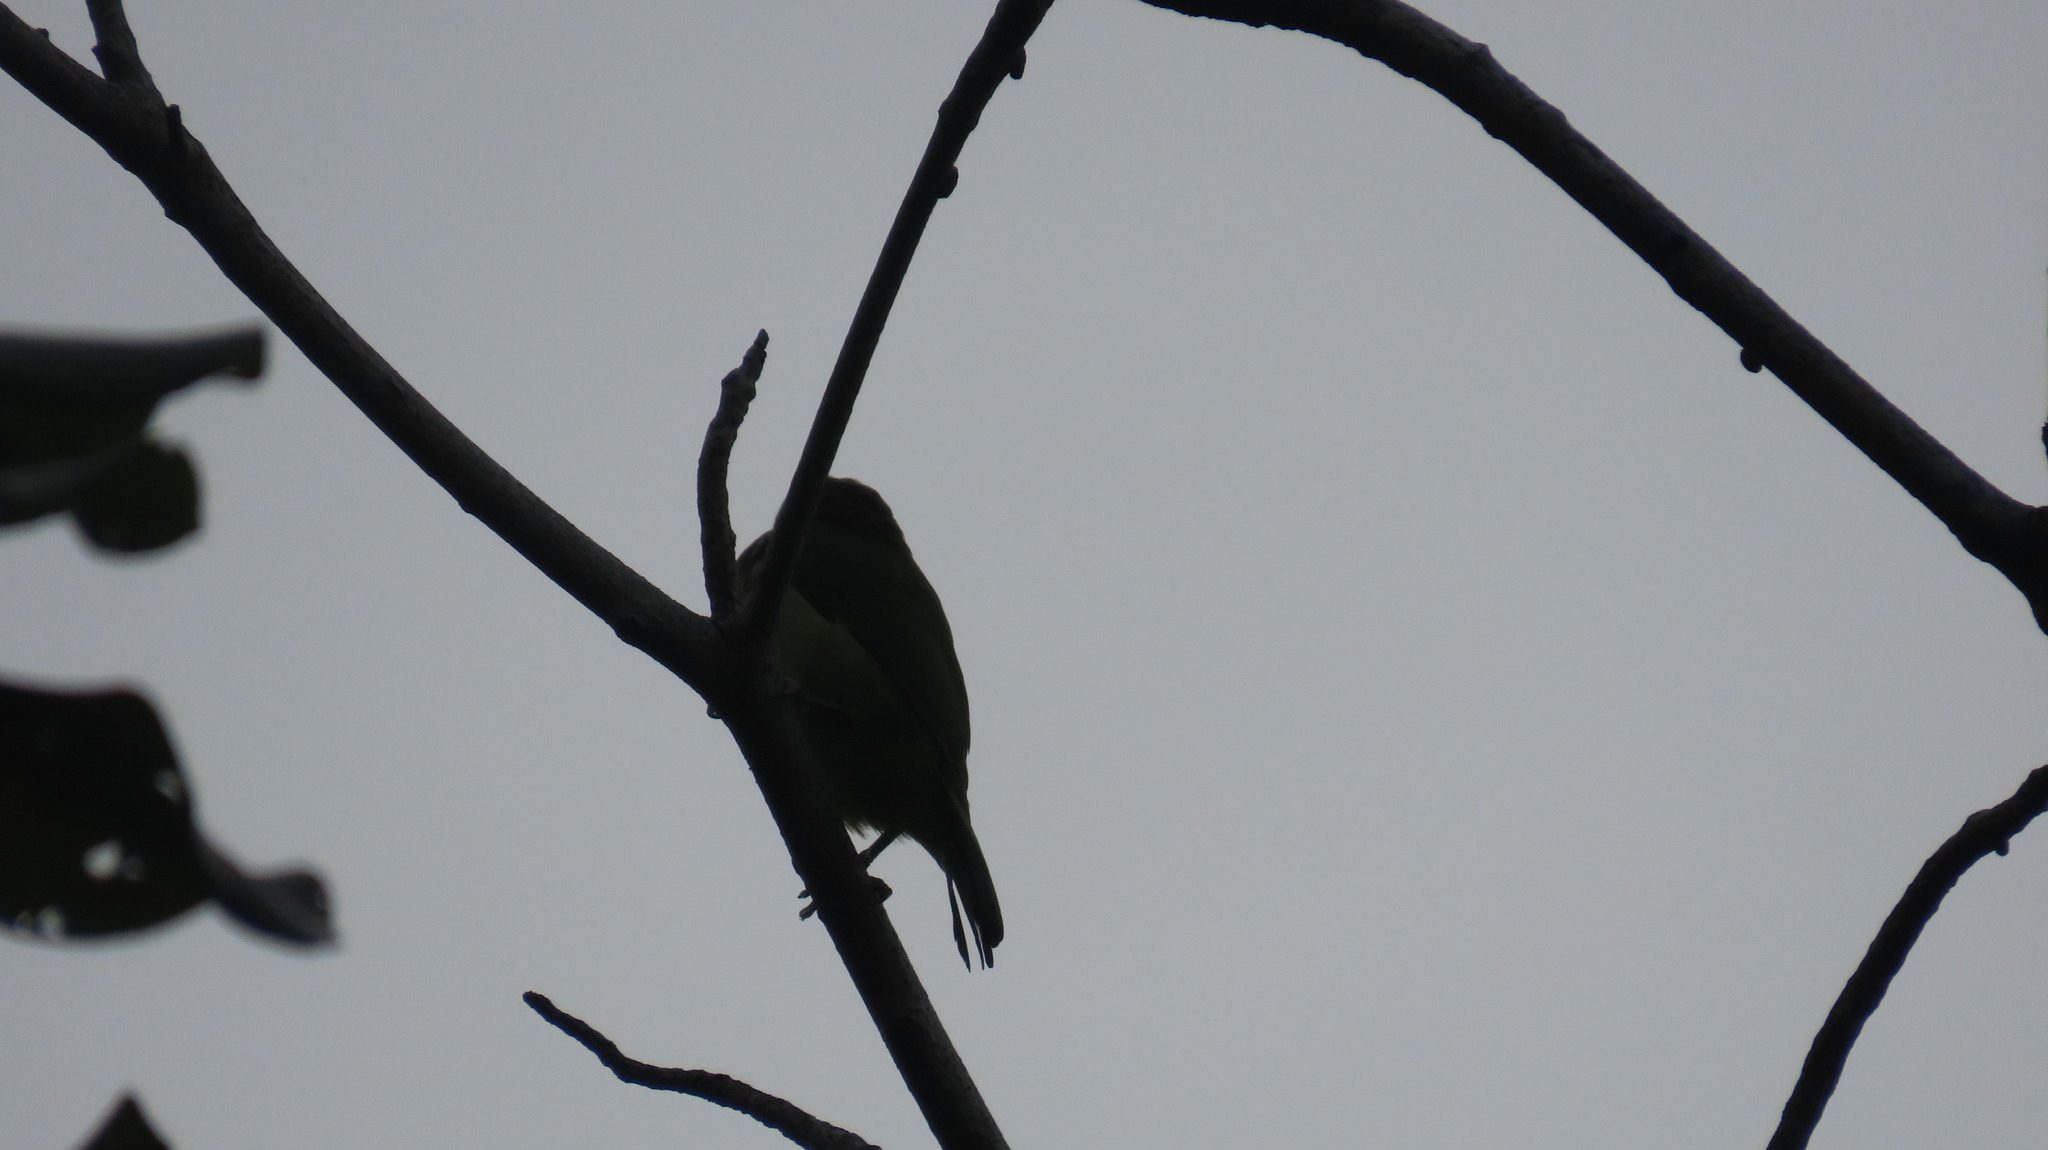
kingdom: Animalia
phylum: Chordata
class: Aves
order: Piciformes
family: Megalaimidae
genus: Psilopogon
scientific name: Psilopogon viridis
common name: White-cheeked barbet
